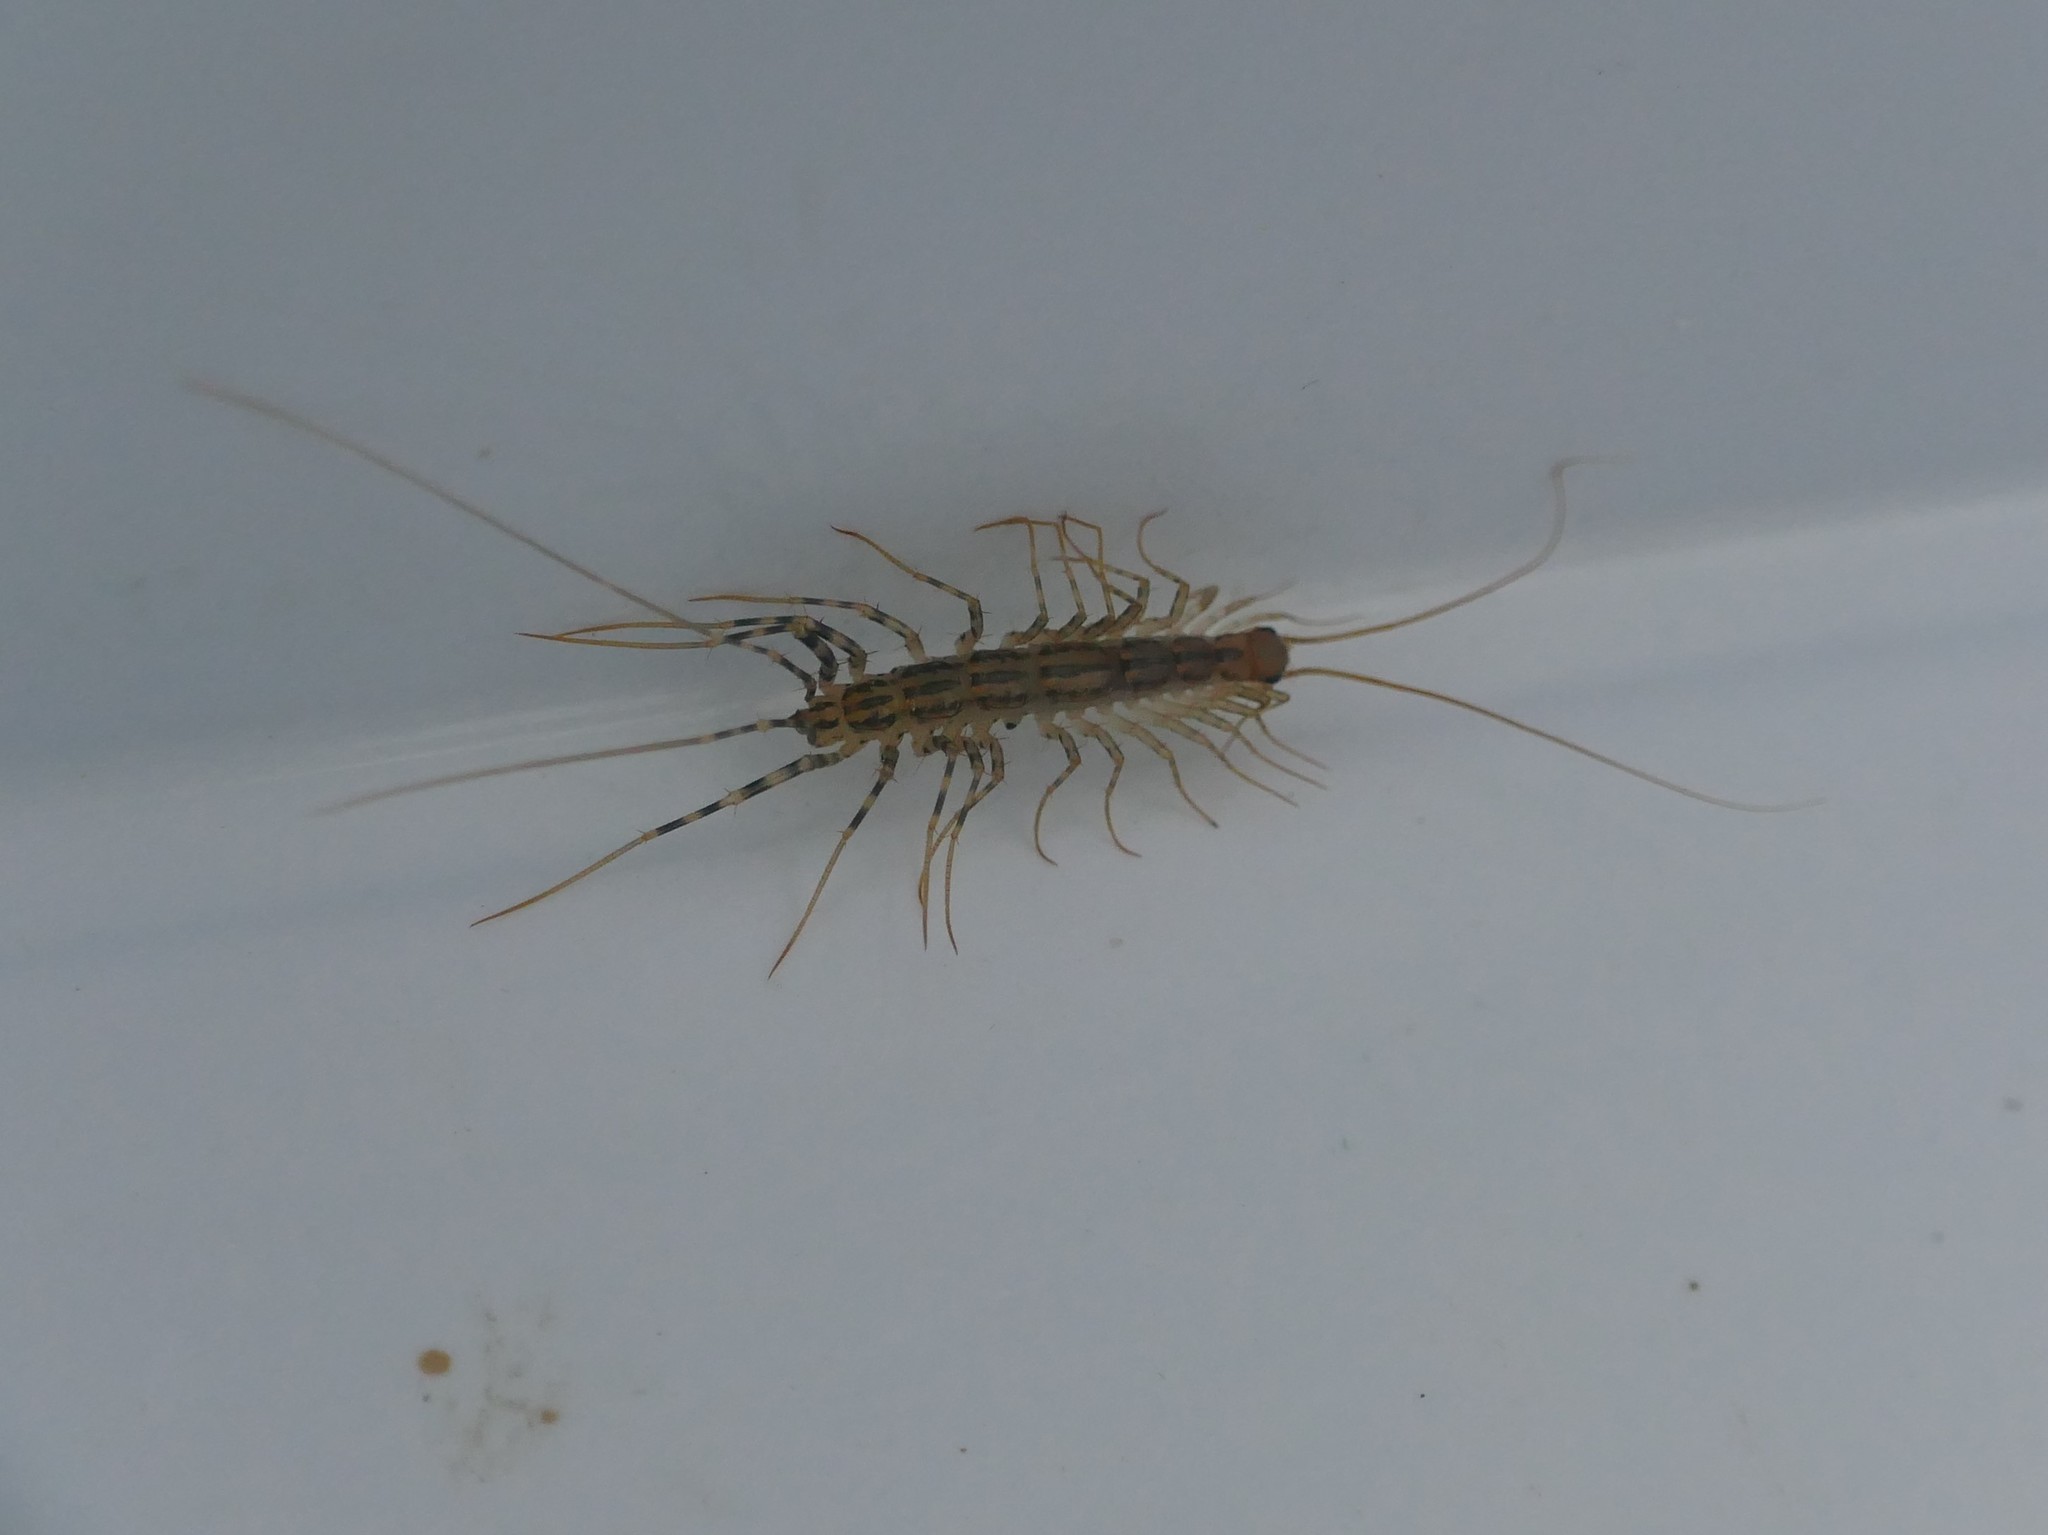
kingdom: Animalia
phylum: Arthropoda
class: Chilopoda
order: Scutigeromorpha
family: Scutigeridae
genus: Scutigera
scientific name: Scutigera coleoptrata
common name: House centipede
